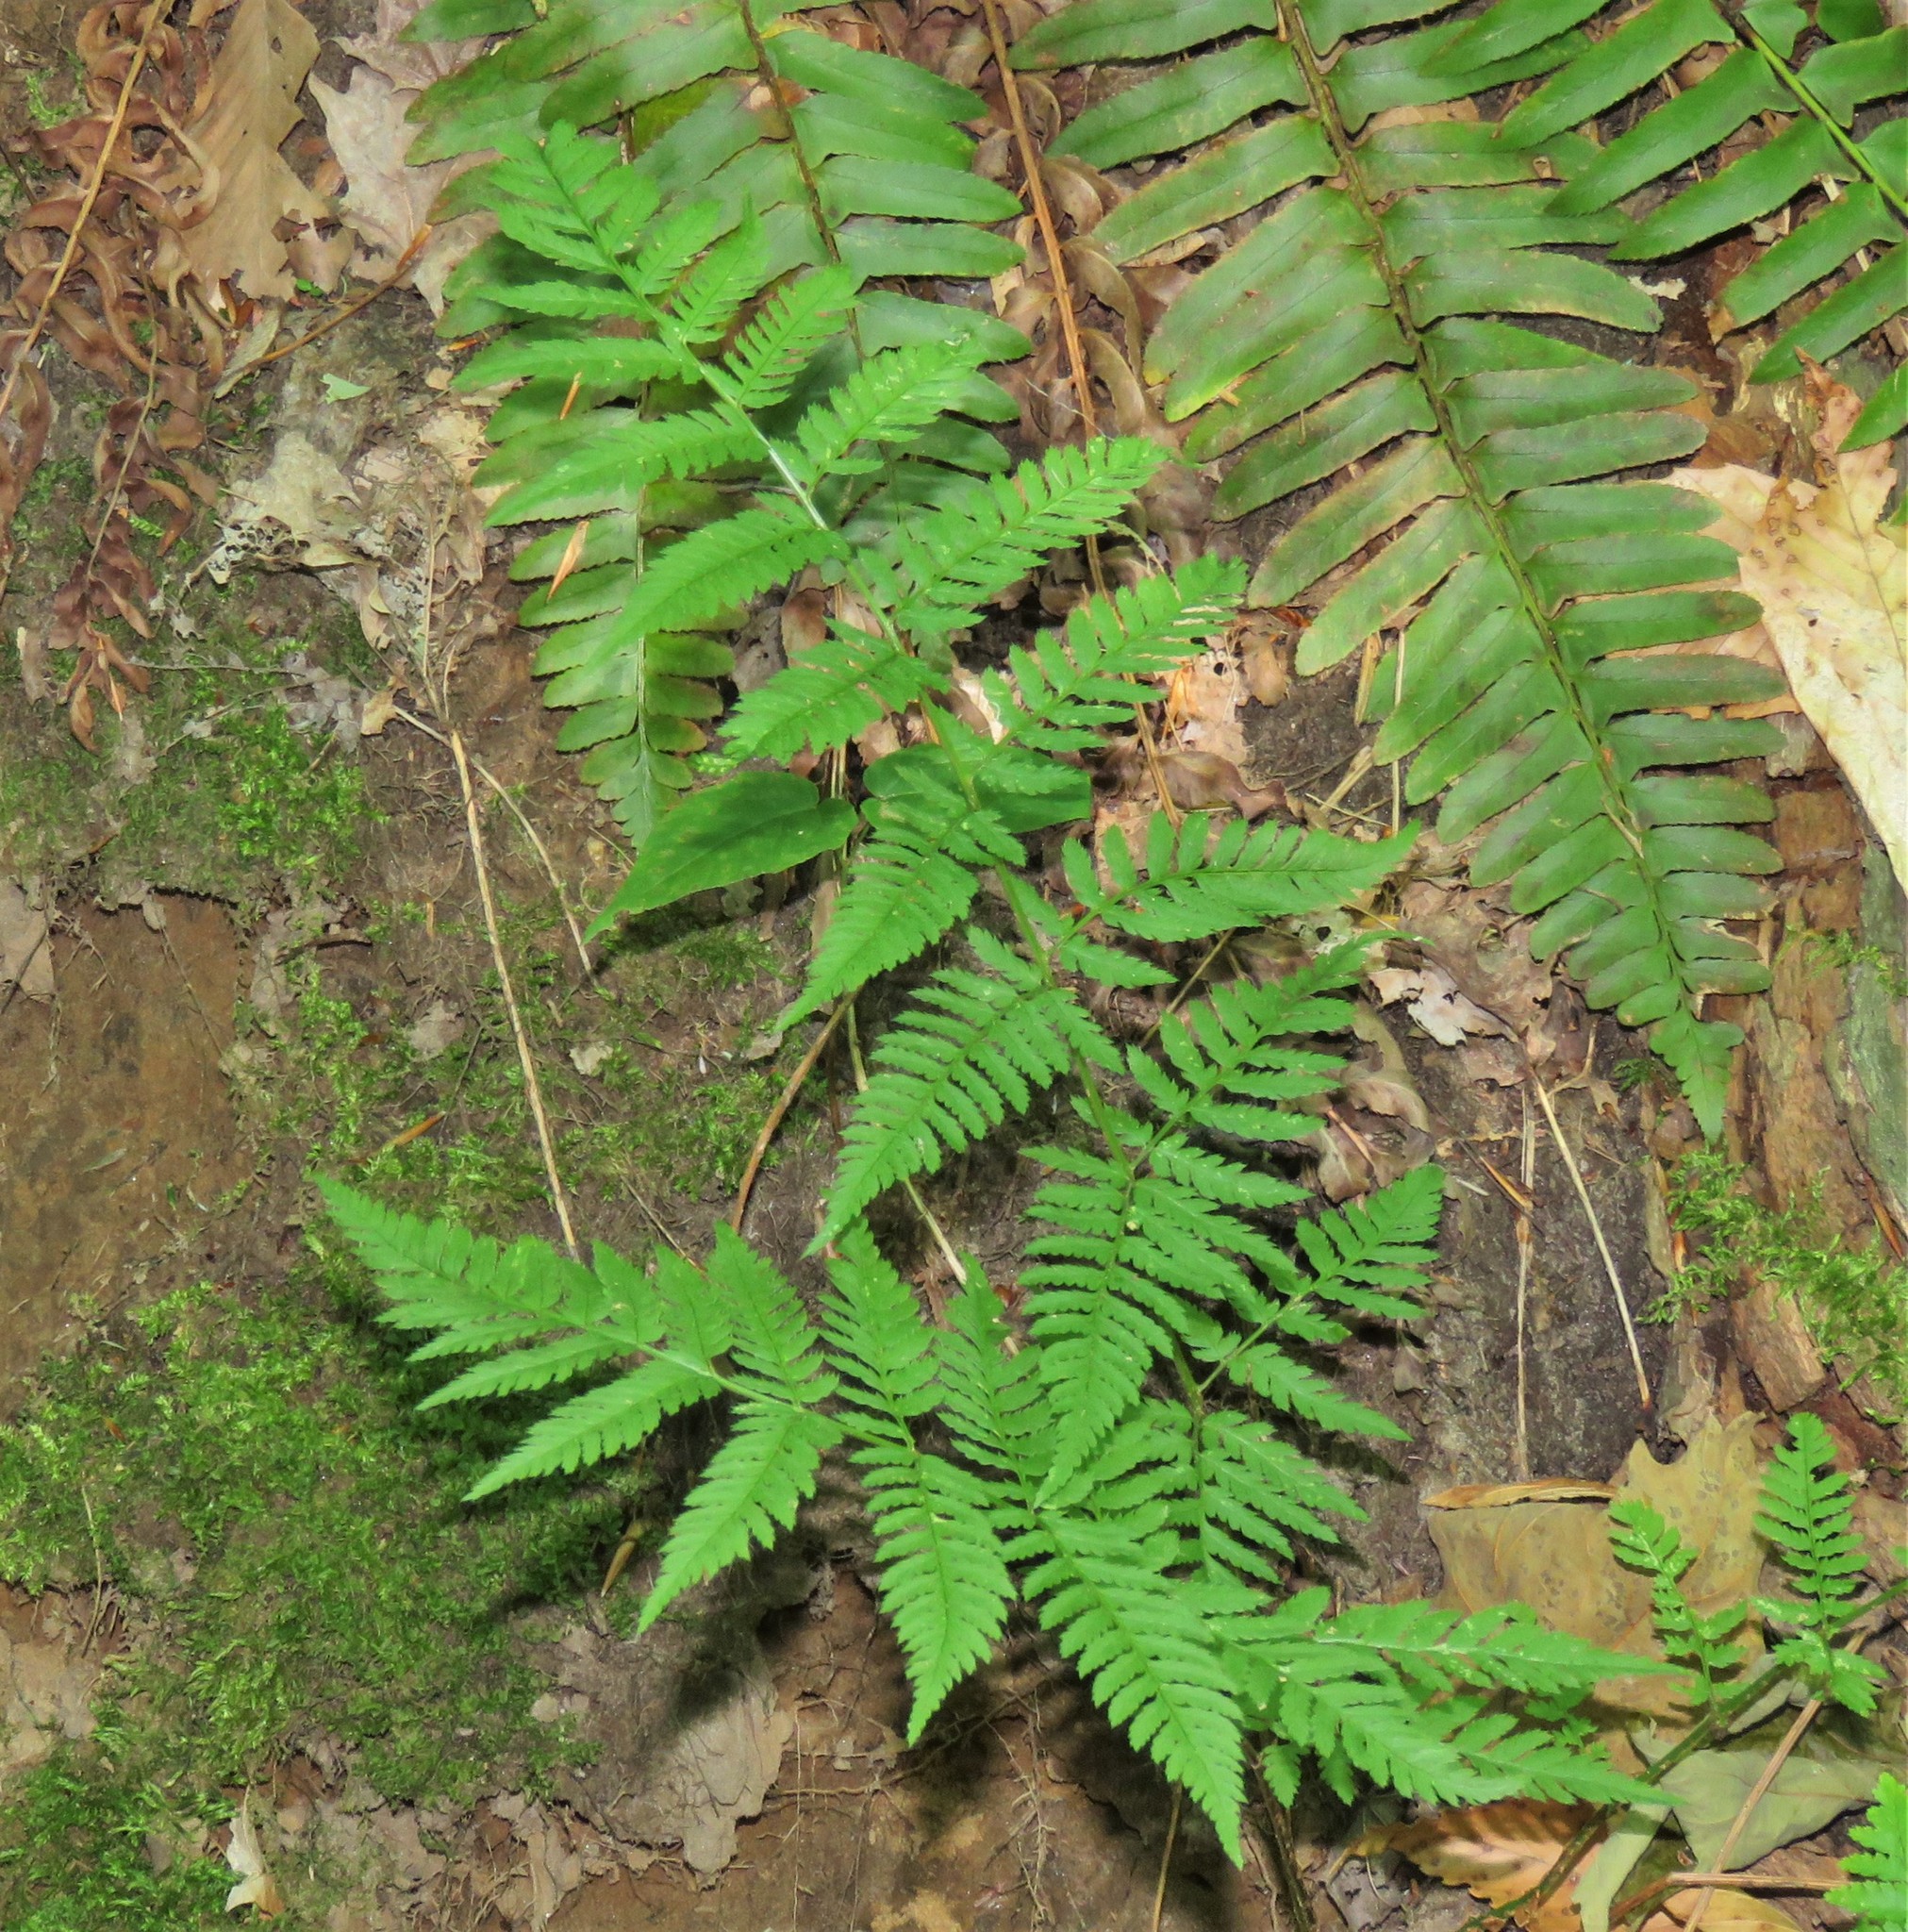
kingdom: Plantae
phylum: Tracheophyta
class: Polypodiopsida
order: Polypodiales
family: Dryopteridaceae
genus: Dryopteris
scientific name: Dryopteris carthusiana
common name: Narrow buckler-fern
